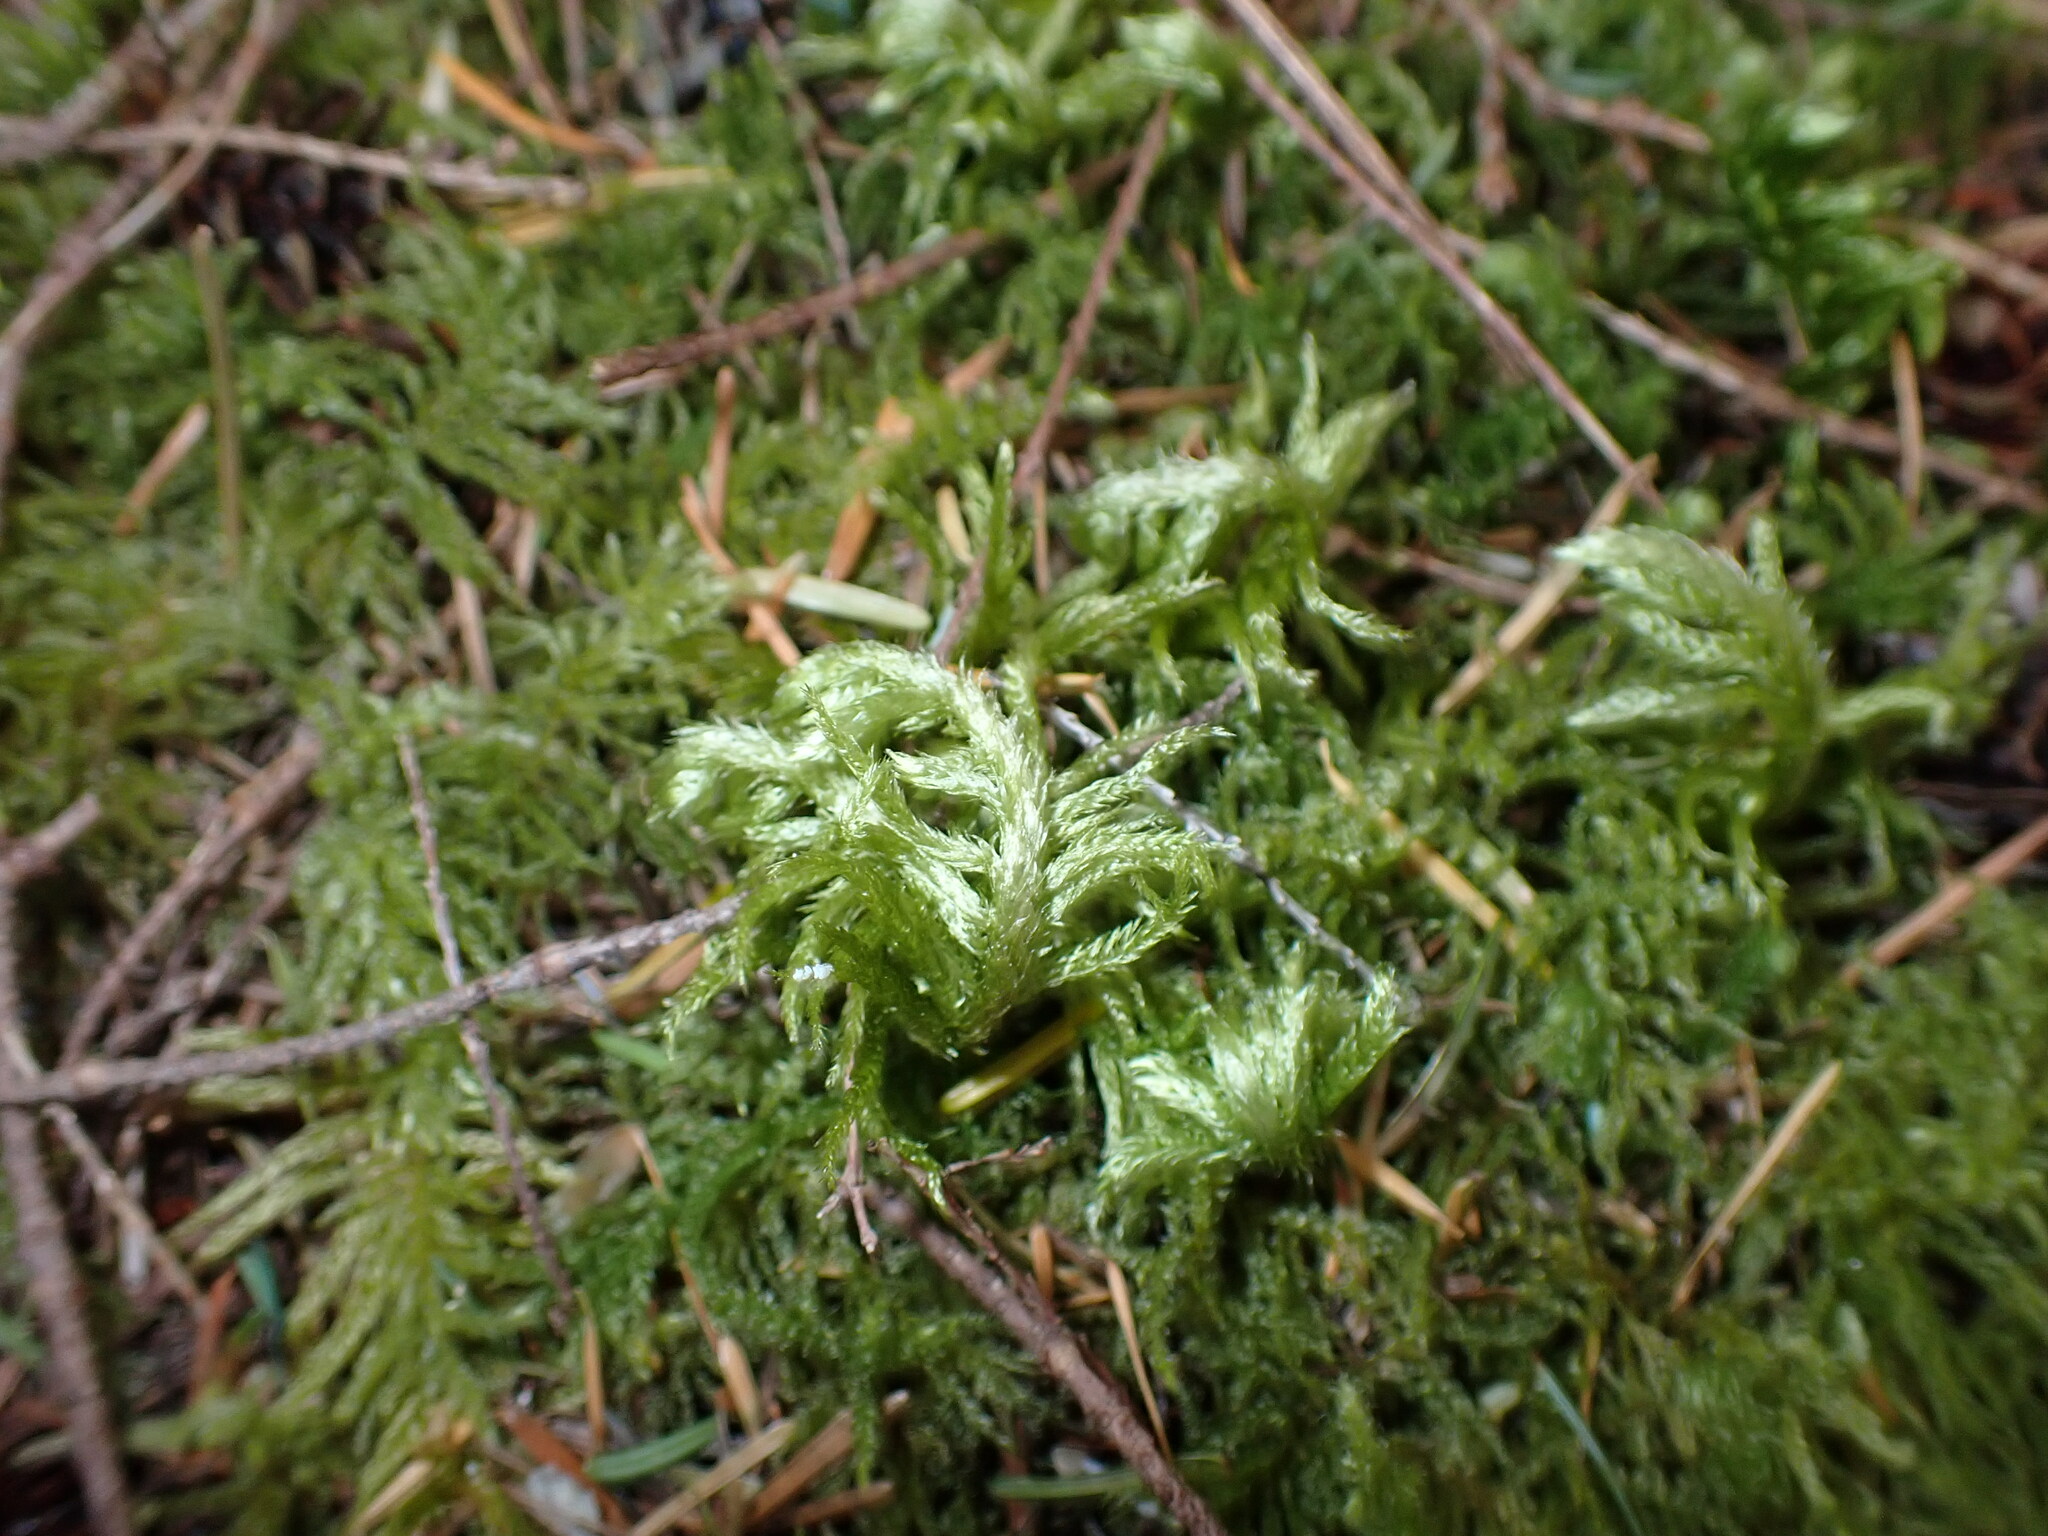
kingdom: Plantae
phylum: Bryophyta
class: Bryopsida
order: Hypnales
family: Brachytheciaceae
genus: Homalothecium
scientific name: Homalothecium megaptilum
